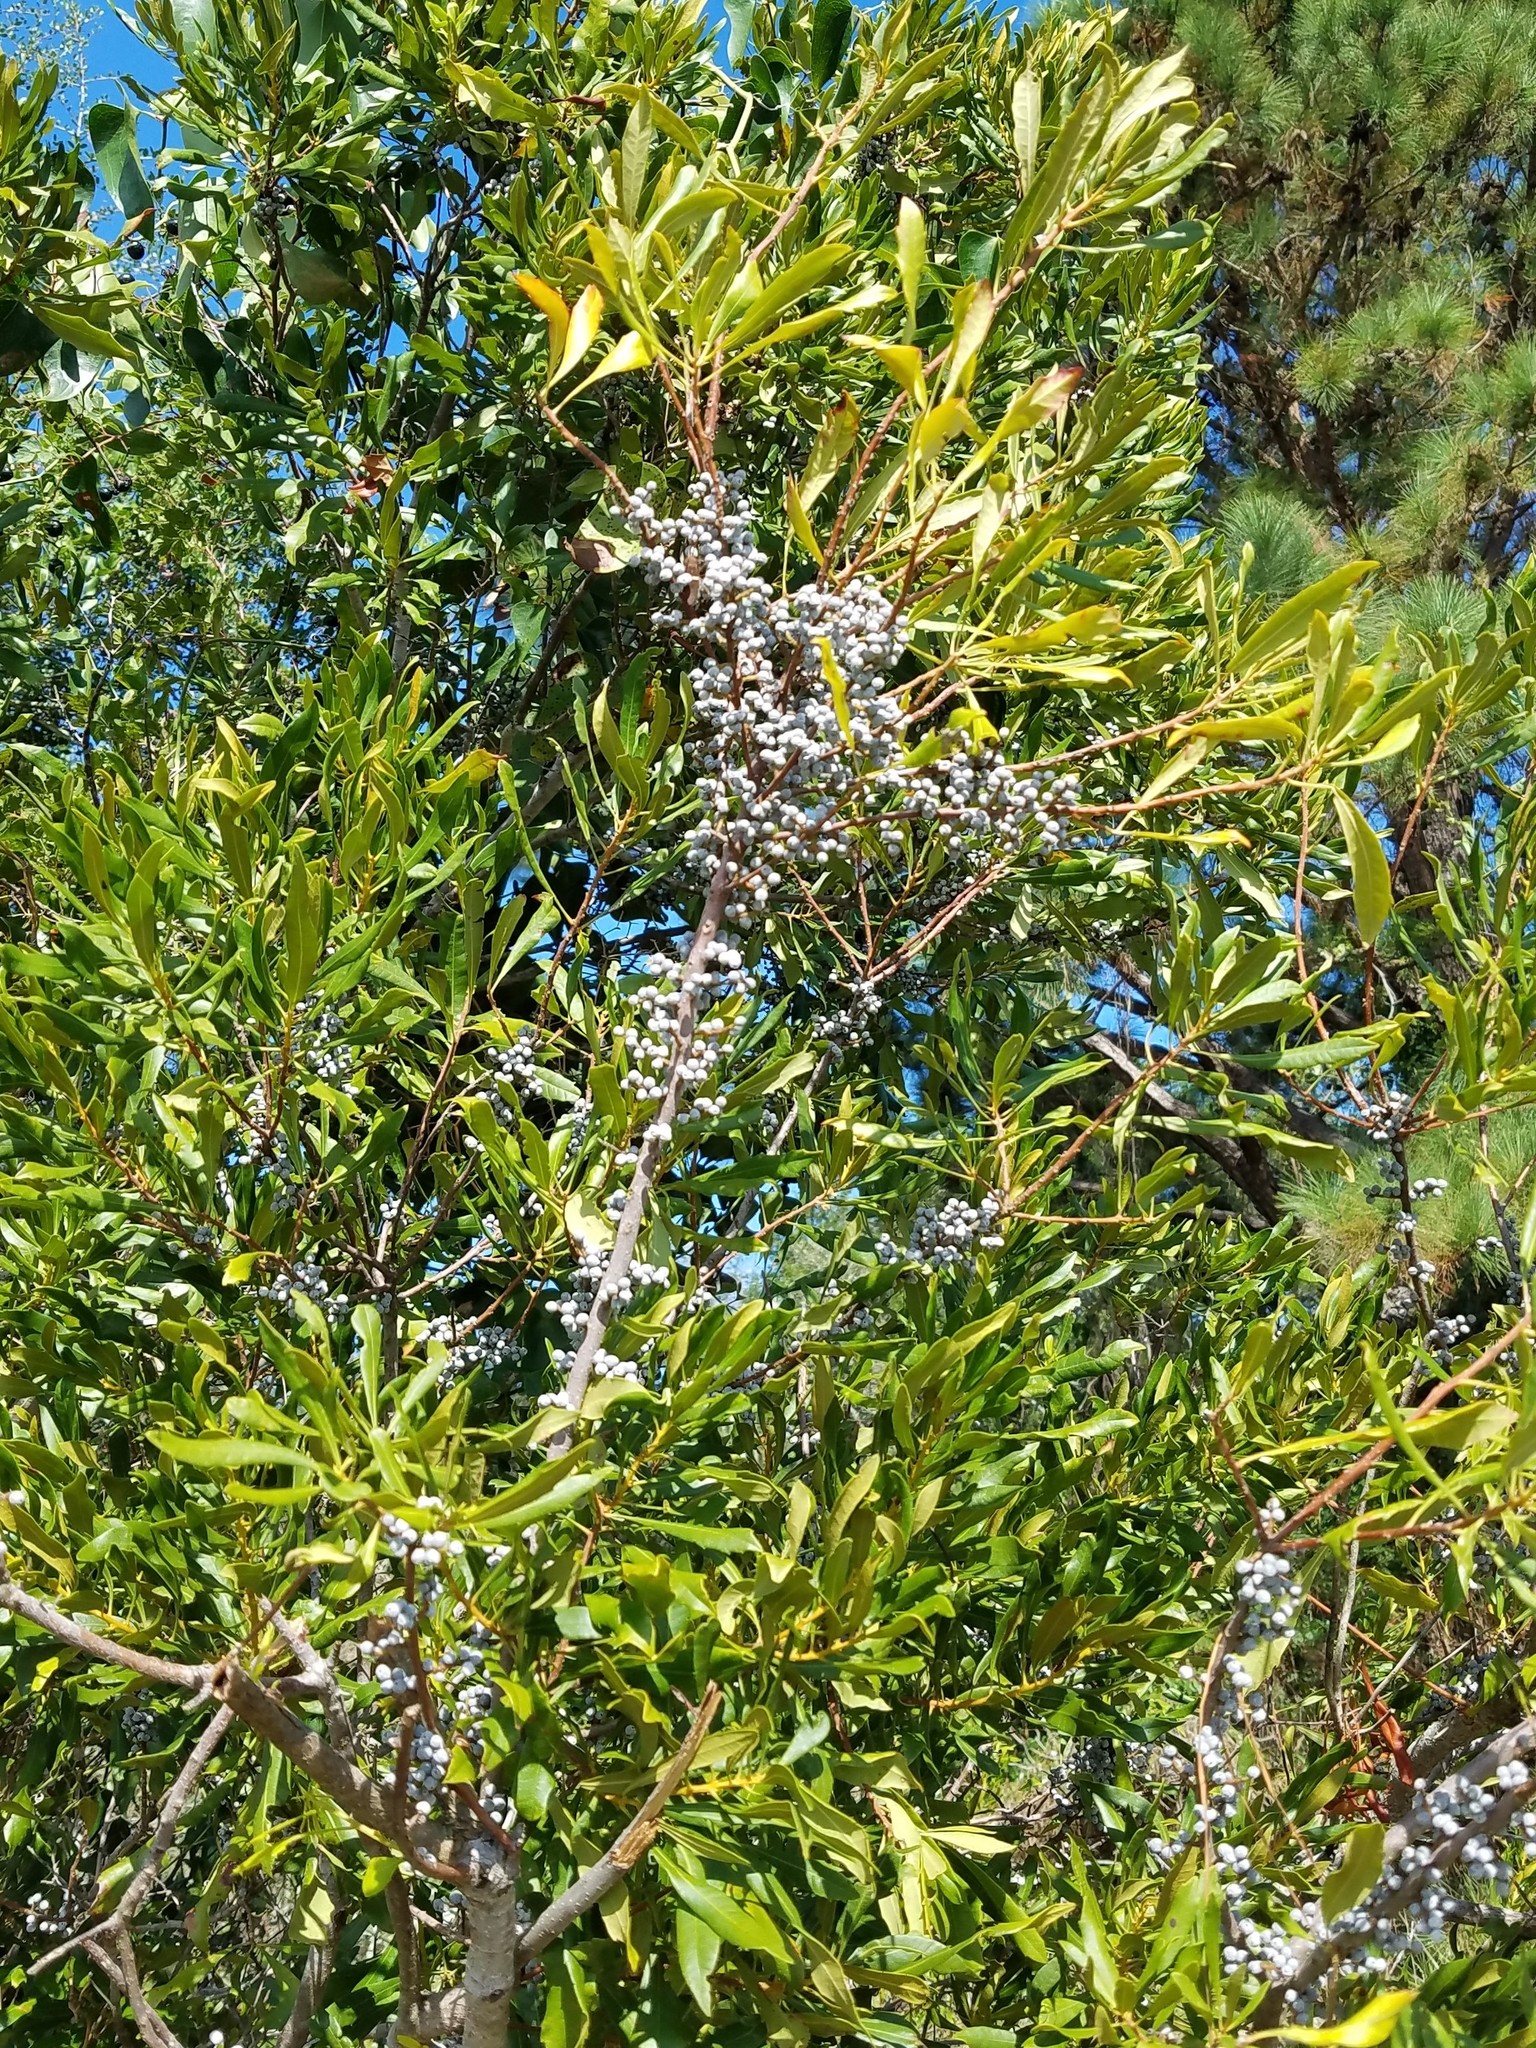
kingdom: Plantae
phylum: Tracheophyta
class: Magnoliopsida
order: Fagales
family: Myricaceae
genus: Morella
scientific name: Morella cerifera
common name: Wax myrtle
